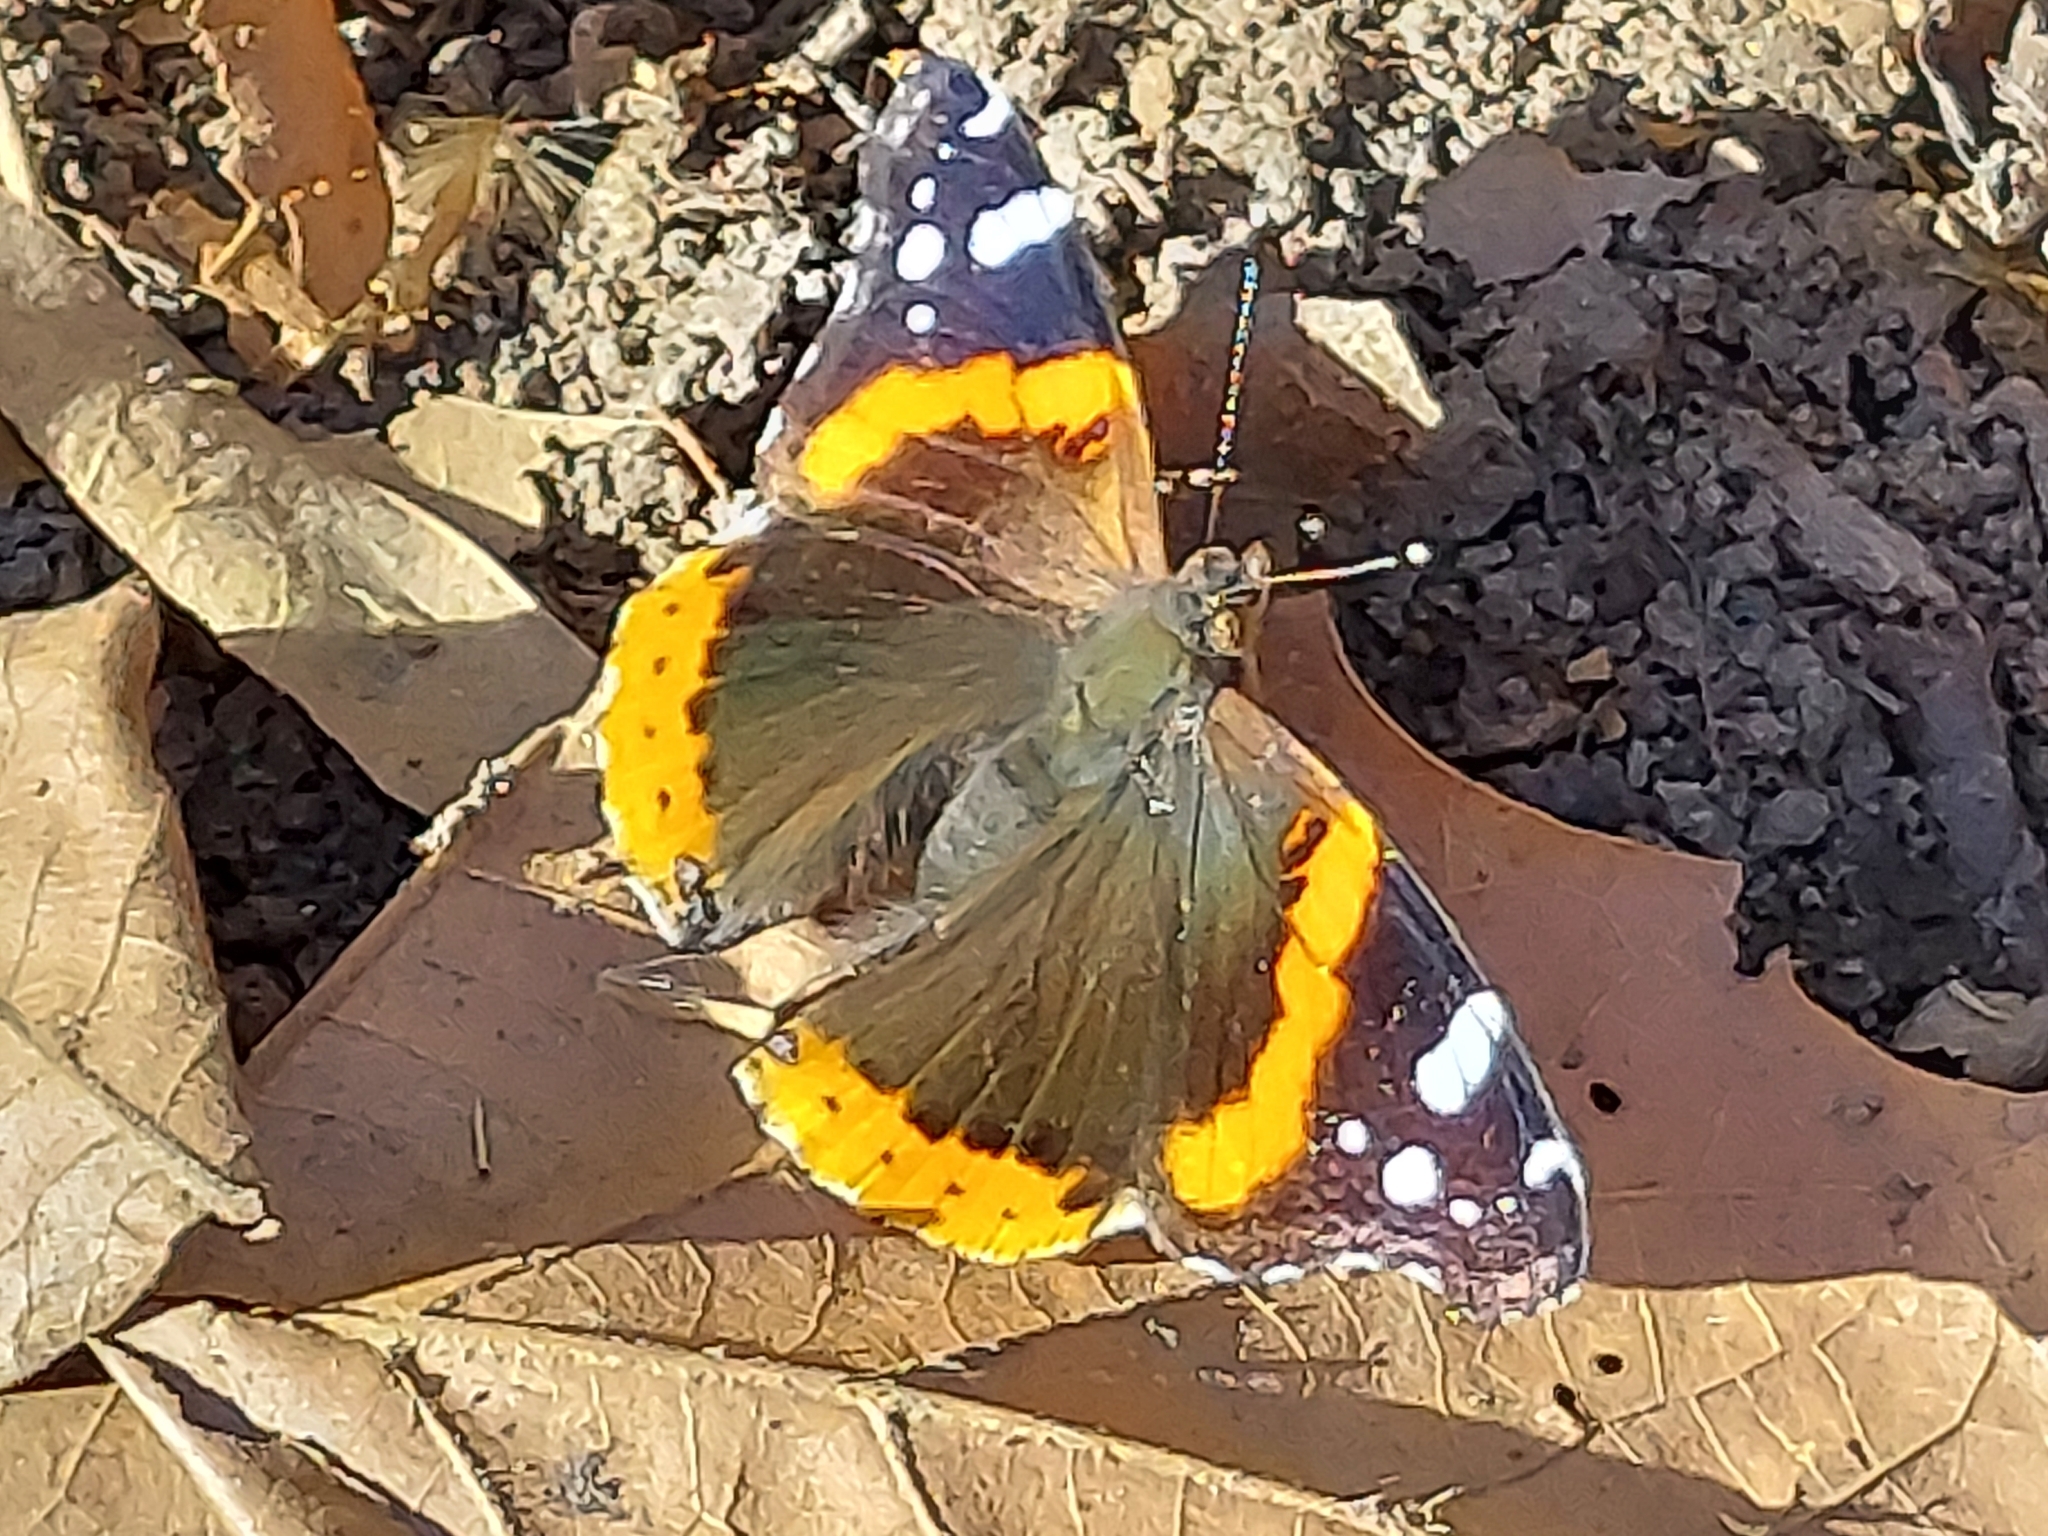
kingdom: Animalia
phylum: Arthropoda
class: Insecta
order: Lepidoptera
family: Nymphalidae
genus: Vanessa
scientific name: Vanessa atalanta
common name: Red admiral
